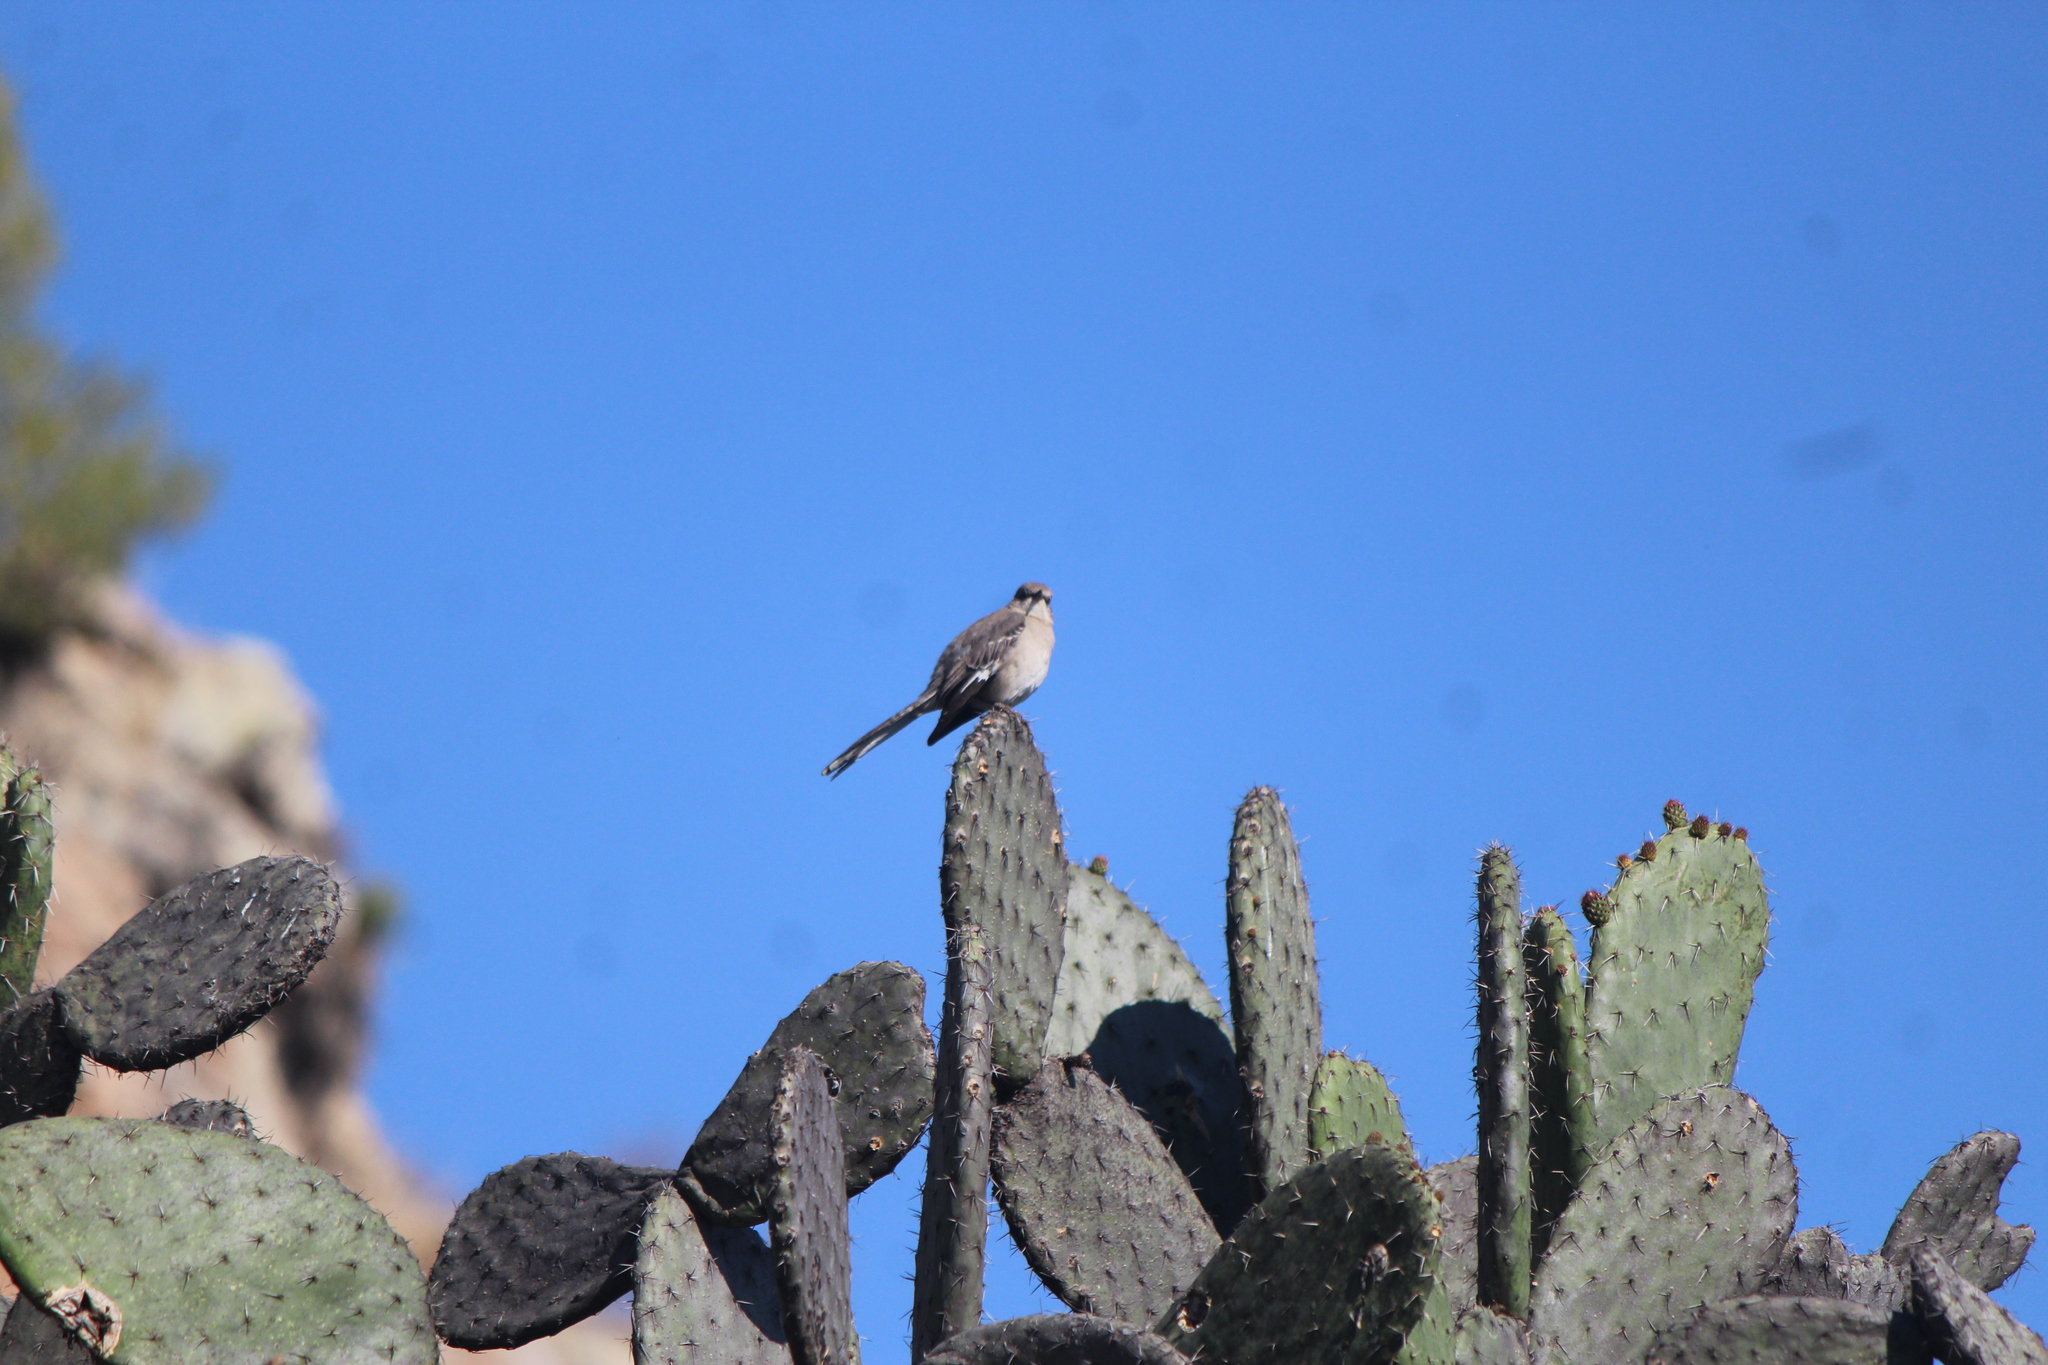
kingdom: Animalia
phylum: Chordata
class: Aves
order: Passeriformes
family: Mimidae
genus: Mimus
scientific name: Mimus polyglottos
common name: Northern mockingbird
